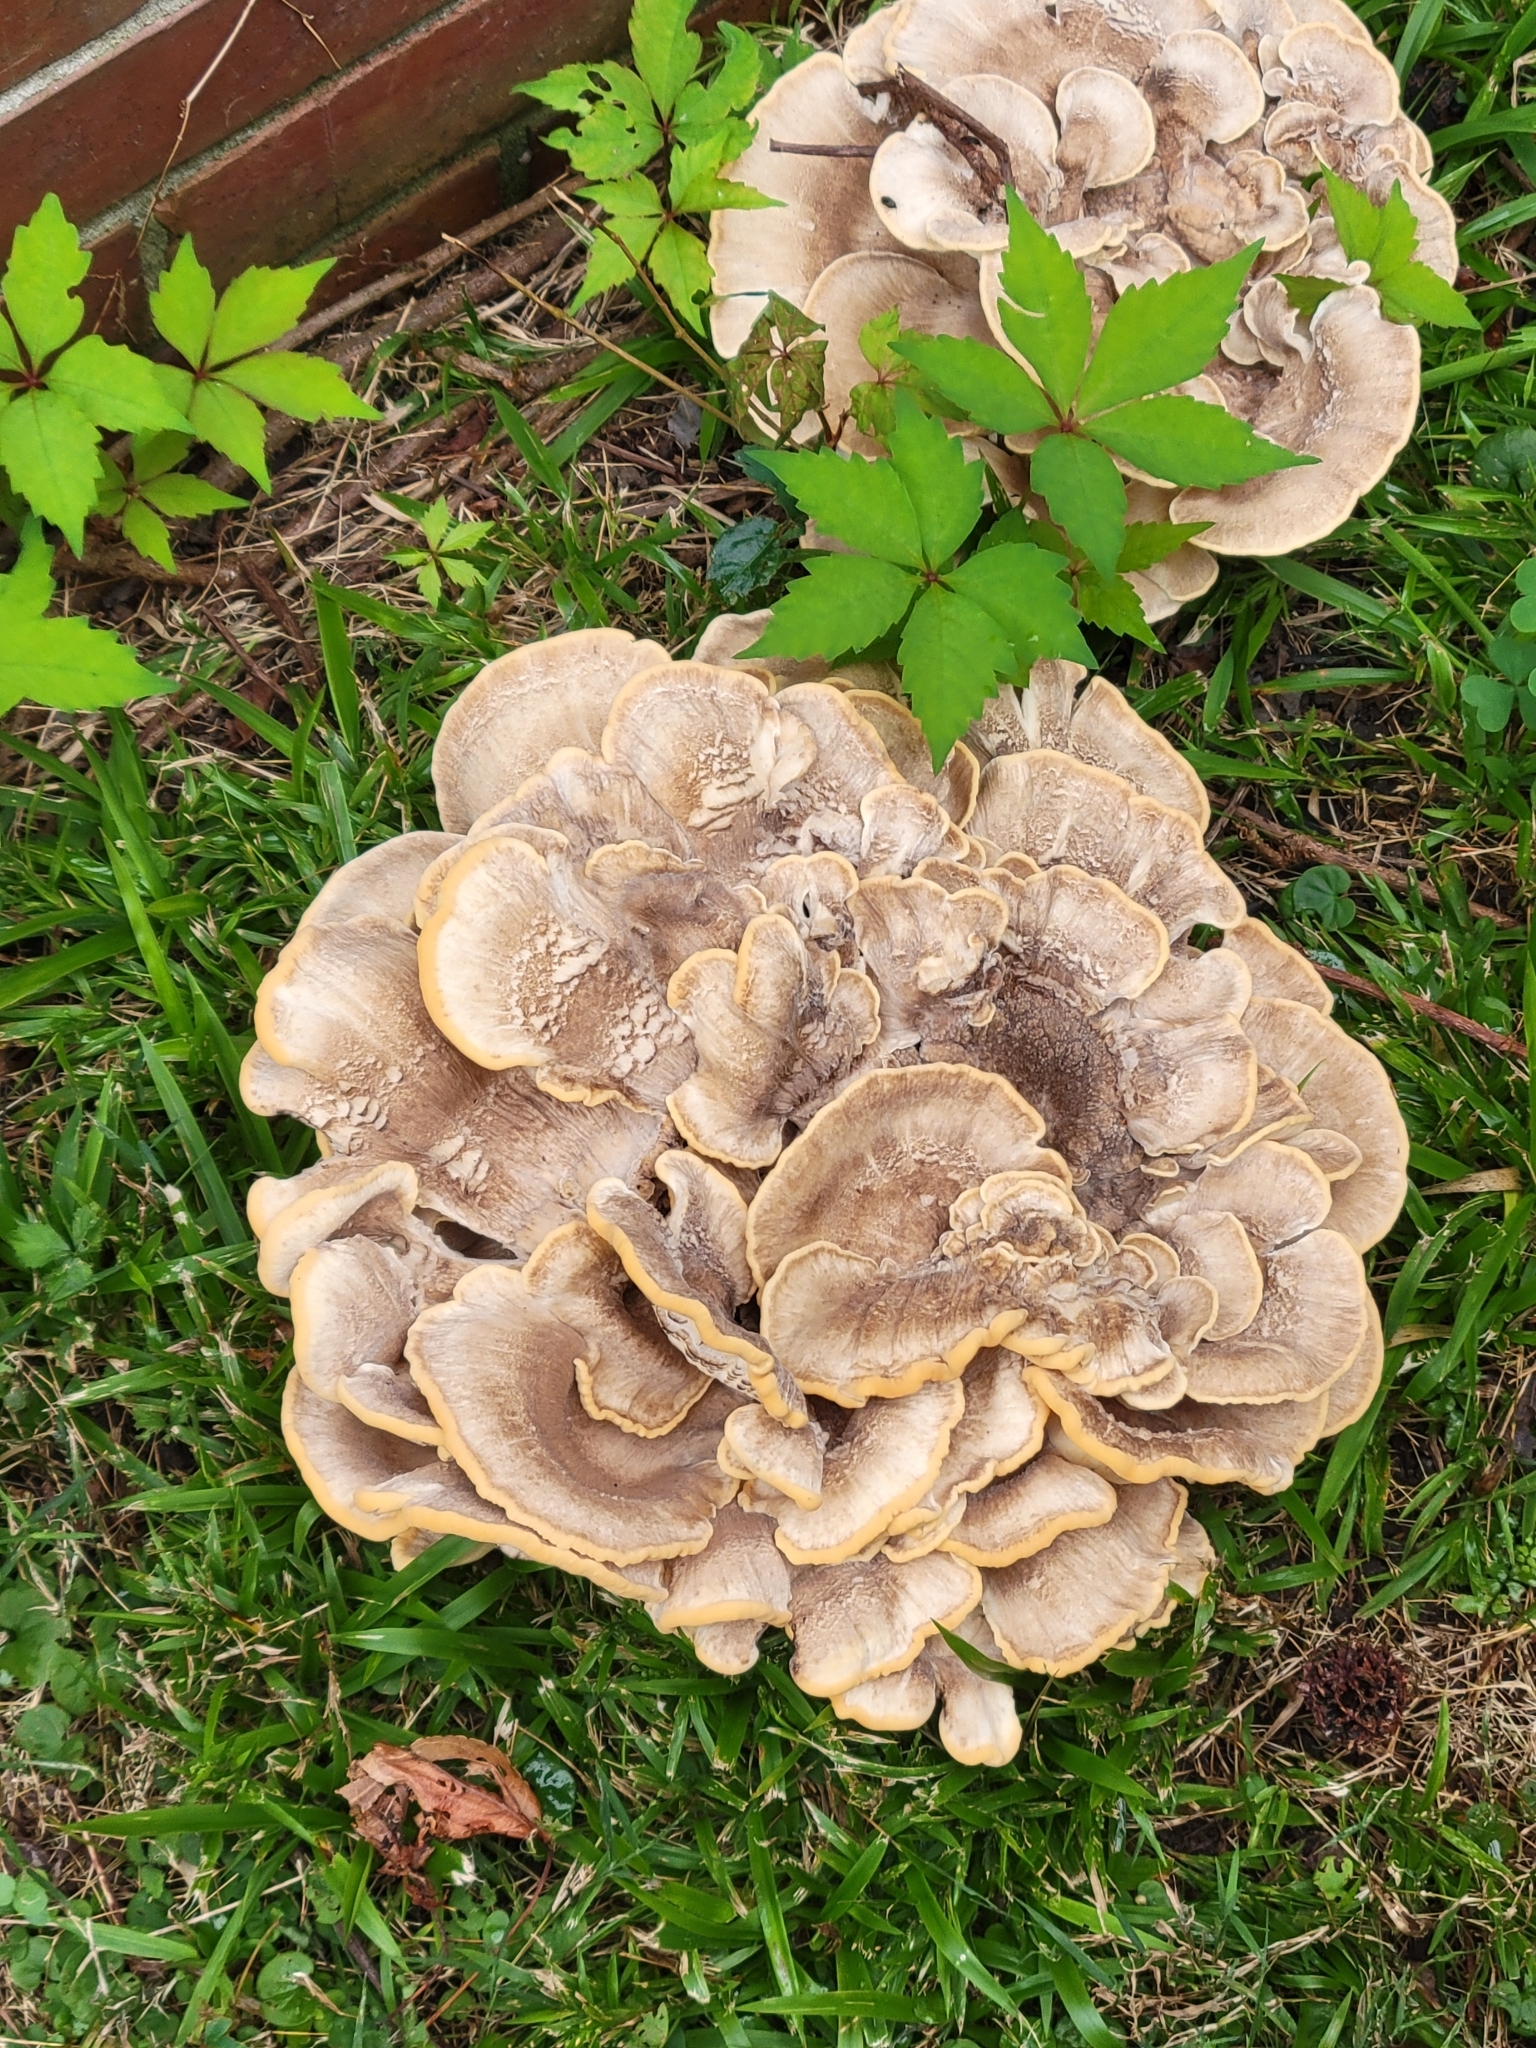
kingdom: Fungi
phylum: Basidiomycota
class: Agaricomycetes
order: Polyporales
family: Meripilaceae
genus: Meripilus
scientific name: Meripilus sumstinei
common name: Black-staining polypore
